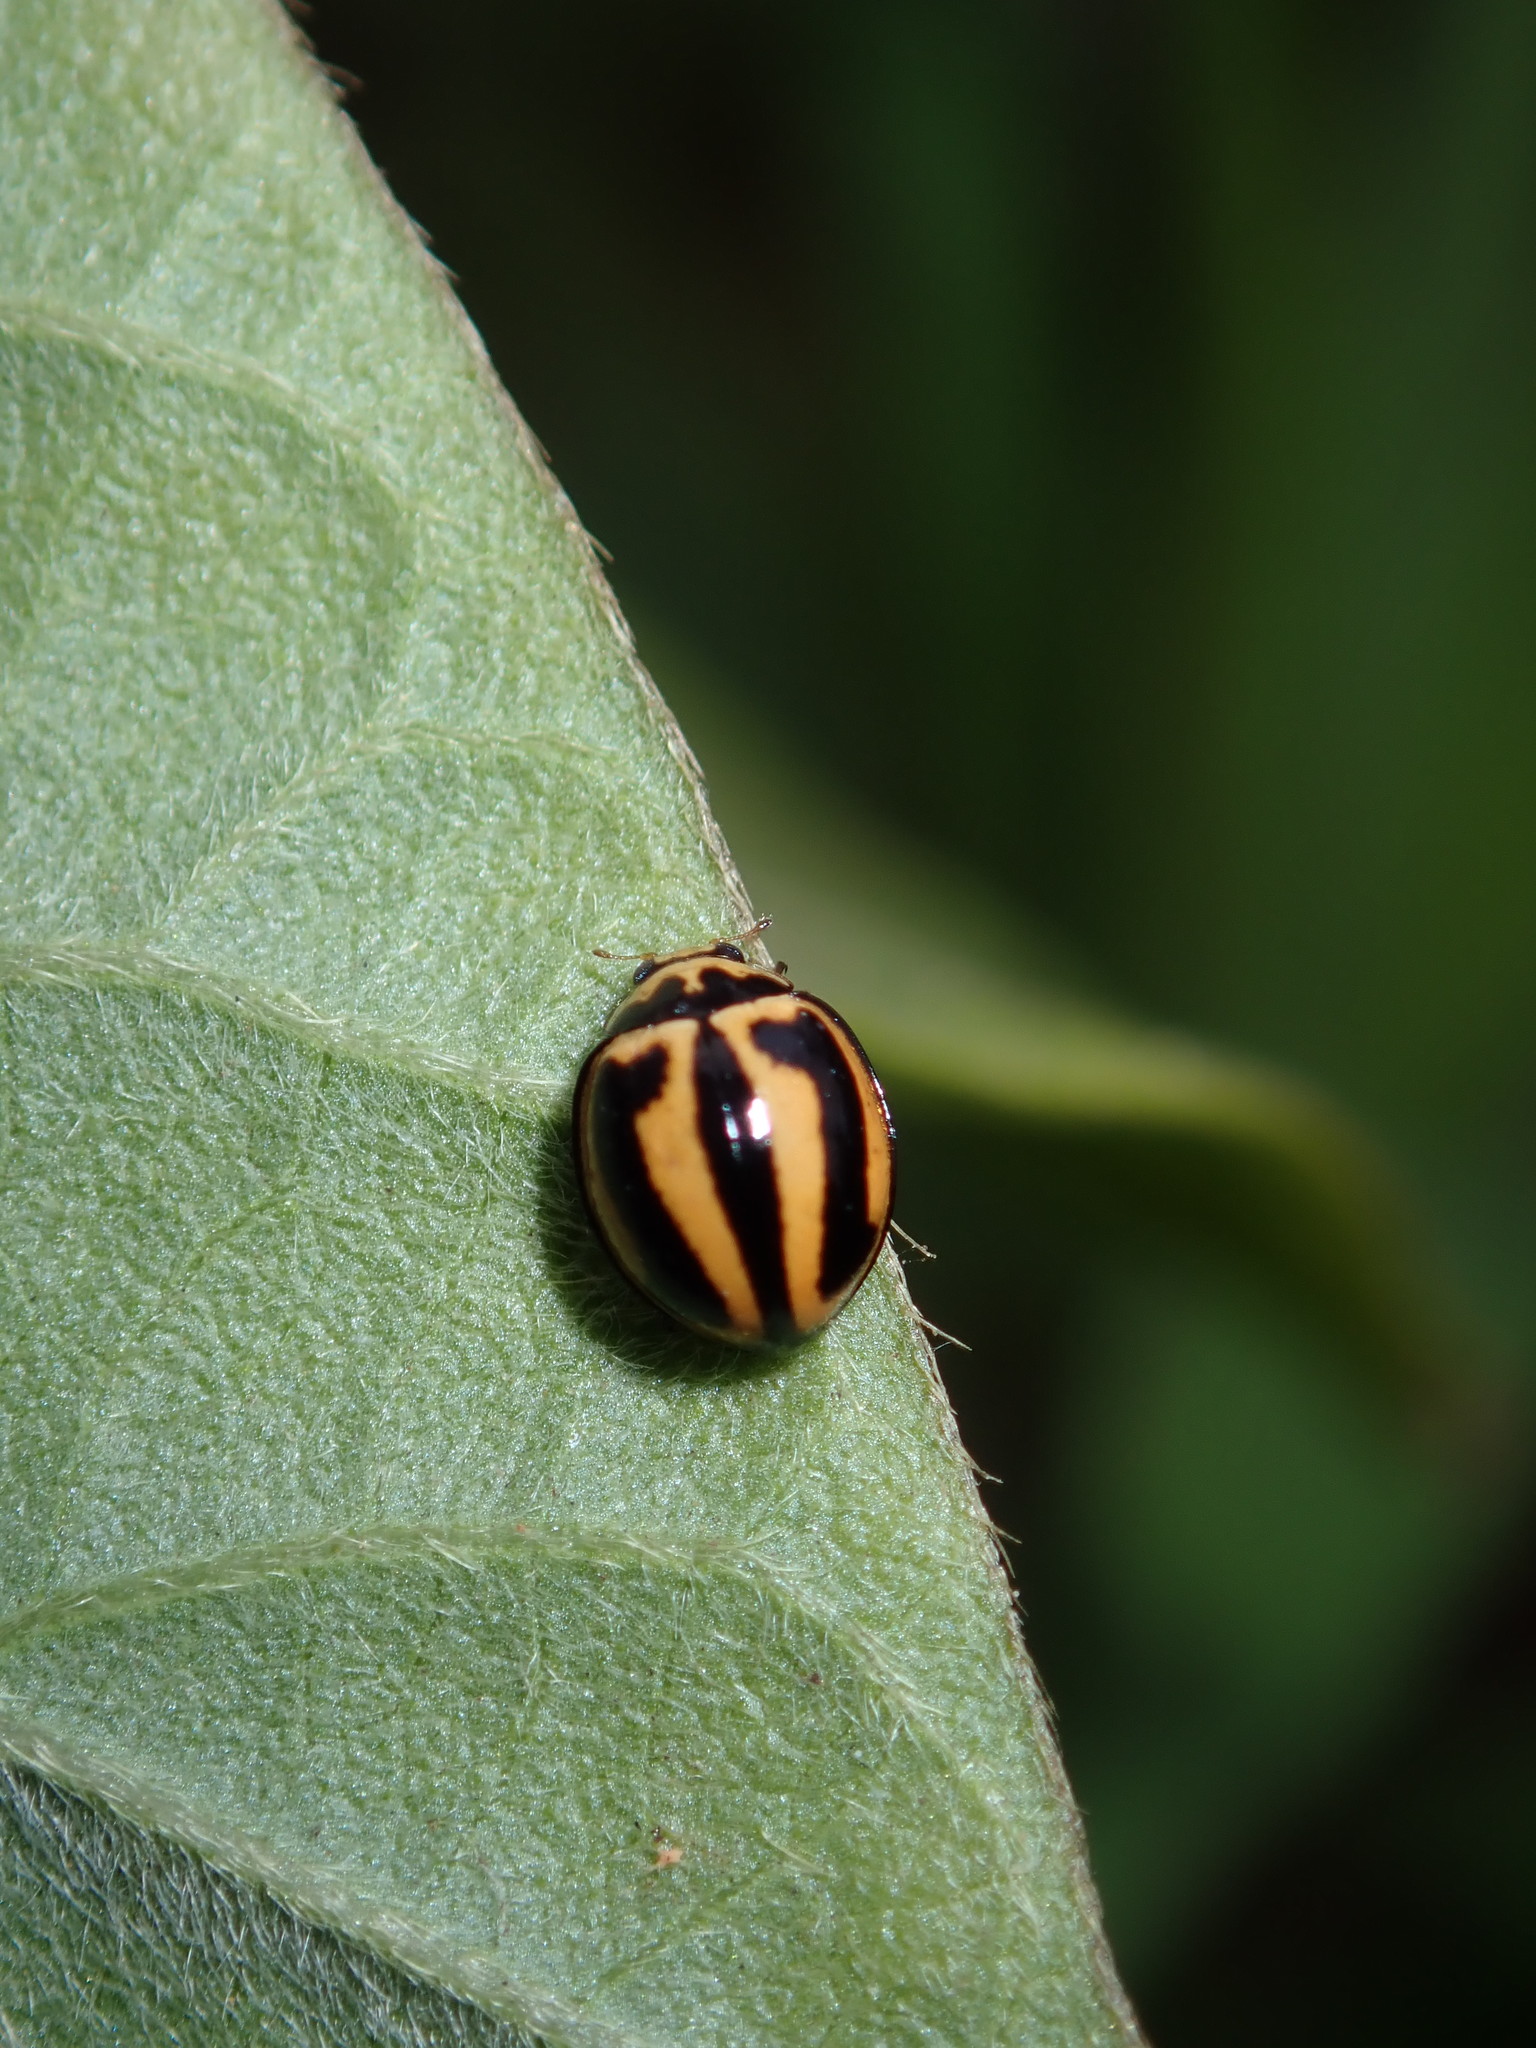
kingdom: Animalia
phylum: Arthropoda
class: Insecta
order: Coleoptera
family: Coccinellidae
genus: Micraspis
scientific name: Micraspis frenata
